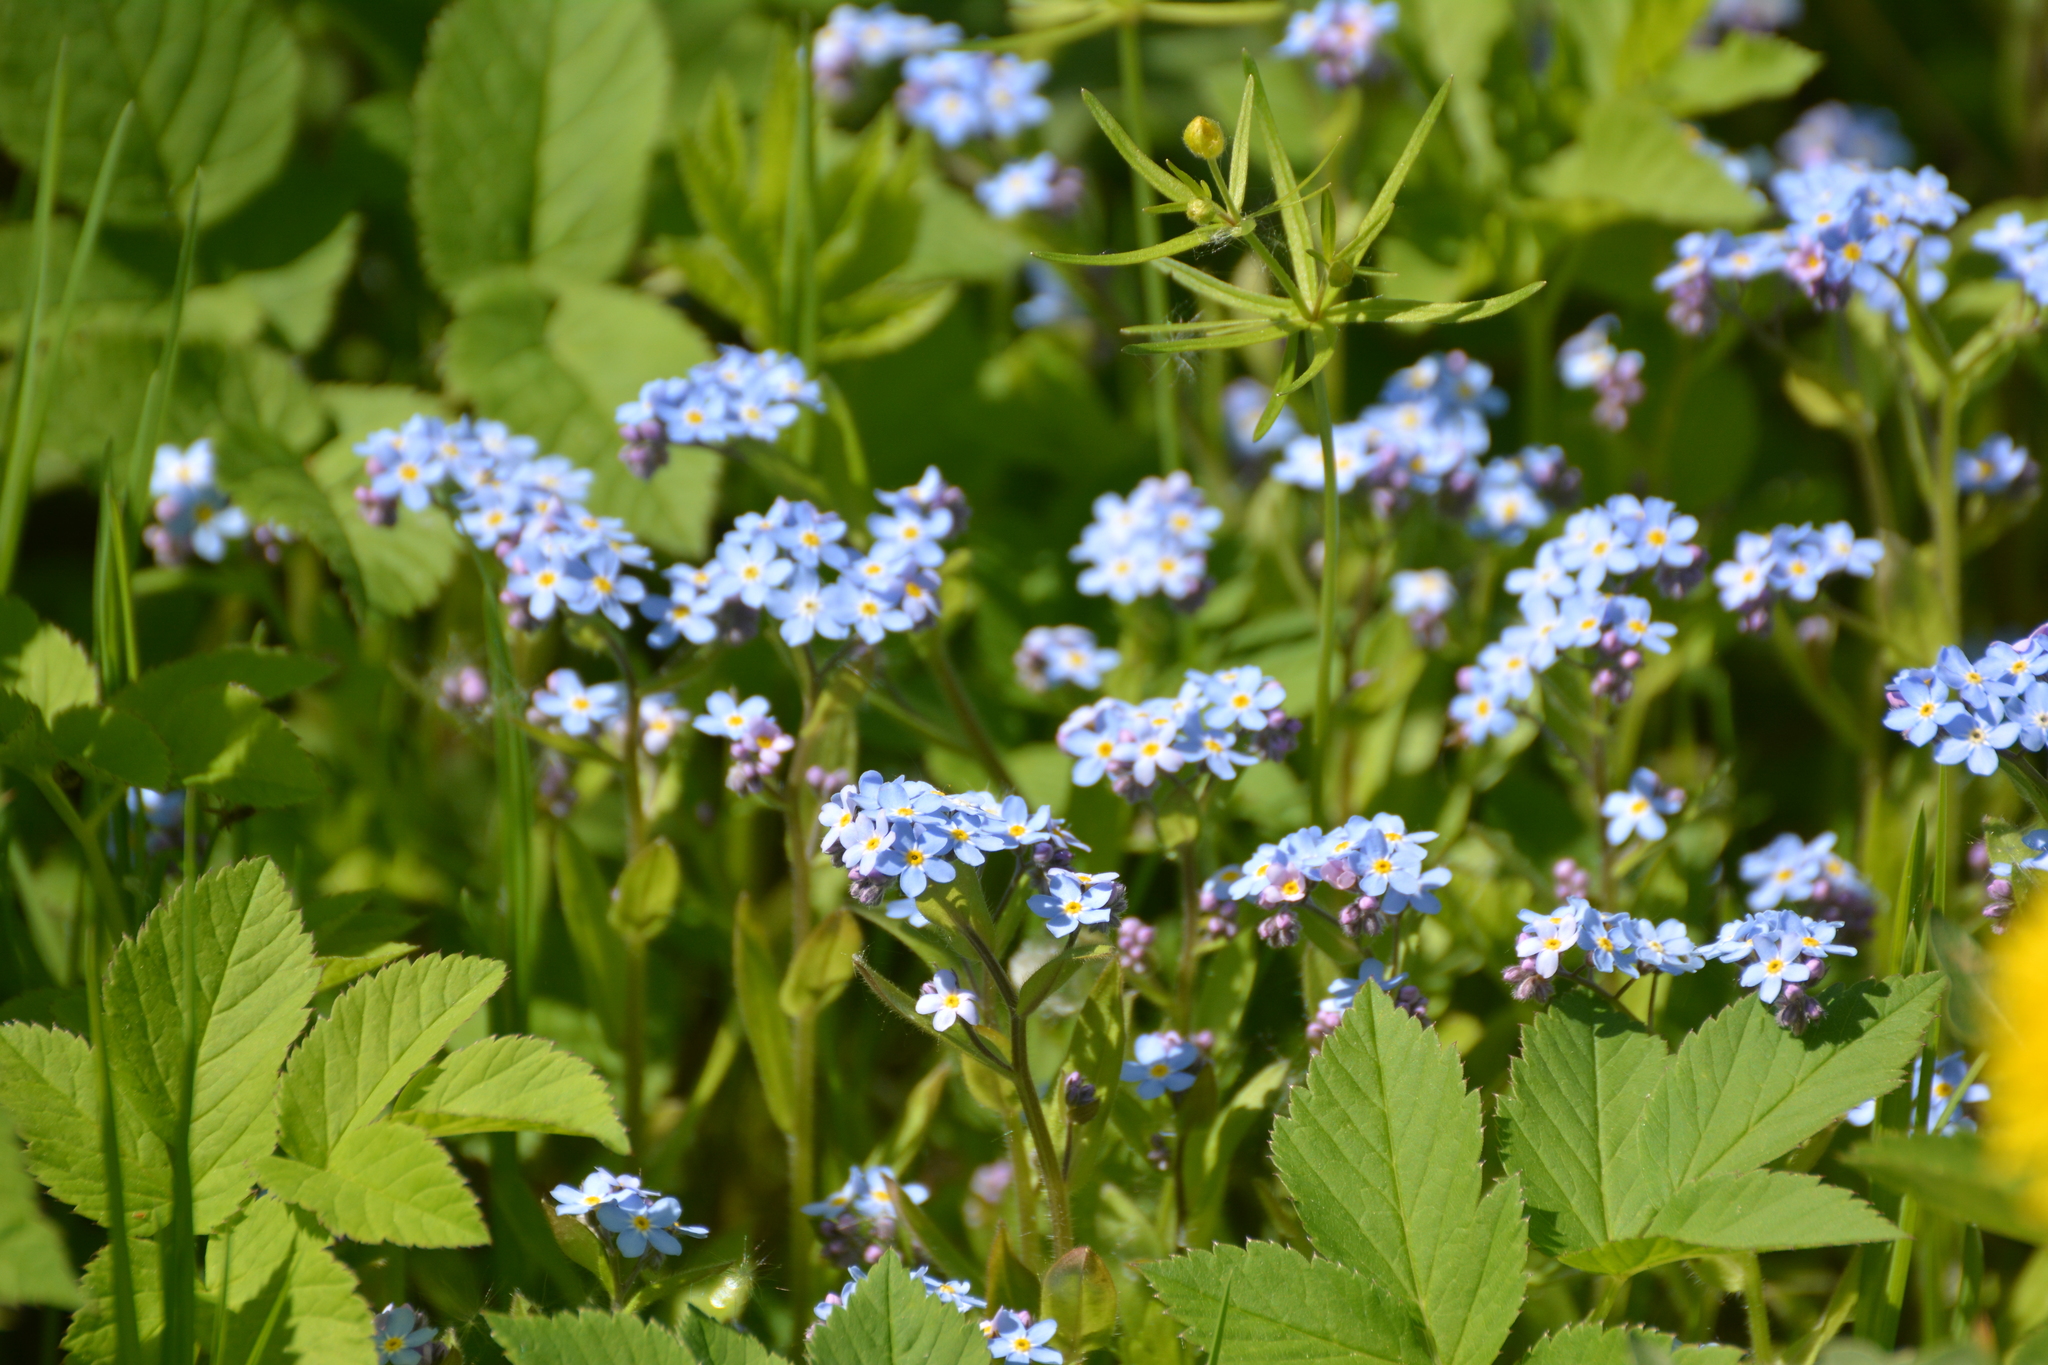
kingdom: Plantae
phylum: Tracheophyta
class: Magnoliopsida
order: Boraginales
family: Boraginaceae
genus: Myosotis
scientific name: Myosotis sylvatica
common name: Wood forget-me-not
